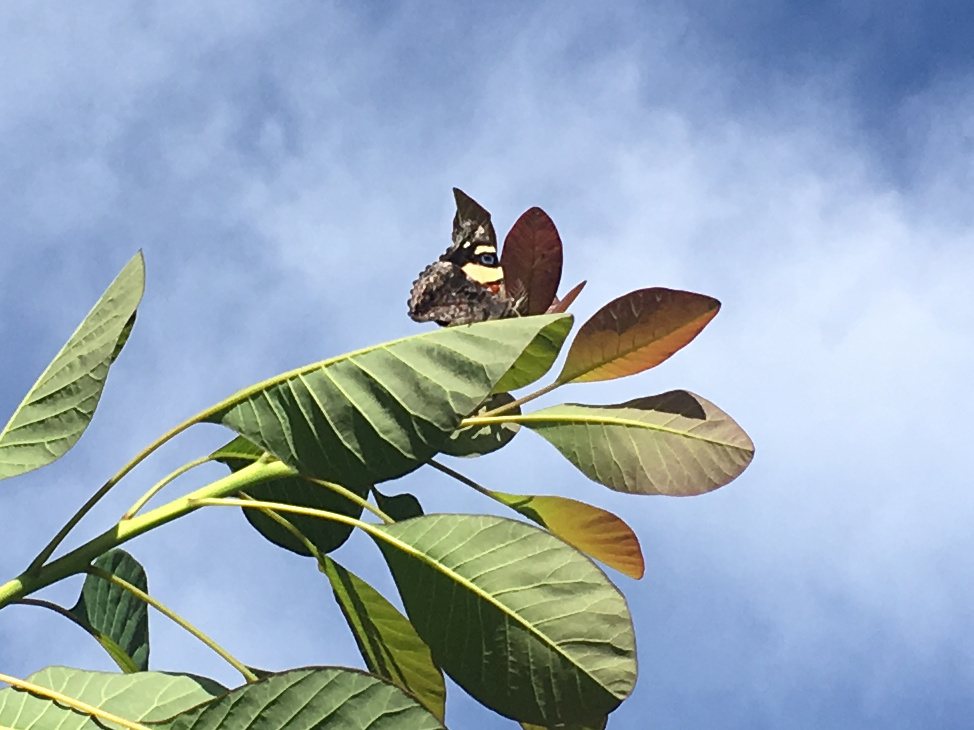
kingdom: Animalia
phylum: Arthropoda
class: Insecta
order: Lepidoptera
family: Nymphalidae
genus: Vanessa
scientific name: Vanessa itea
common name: Yellow admiral
